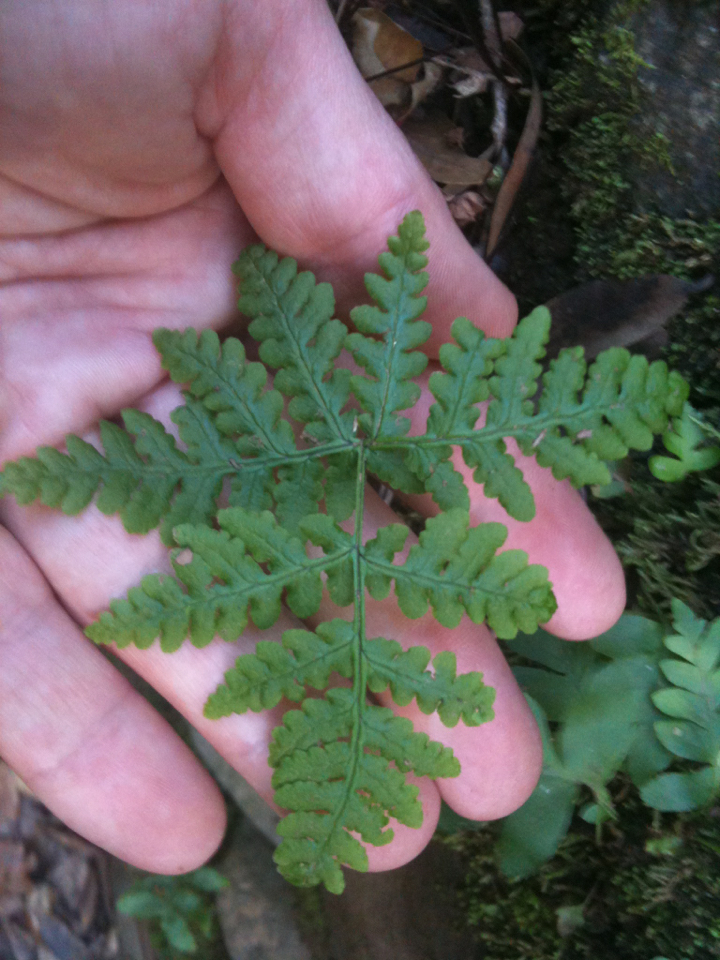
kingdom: Plantae
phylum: Tracheophyta
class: Polypodiopsida
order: Polypodiales
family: Pteridaceae
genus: Pentagramma
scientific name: Pentagramma triangularis
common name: Gold fern
